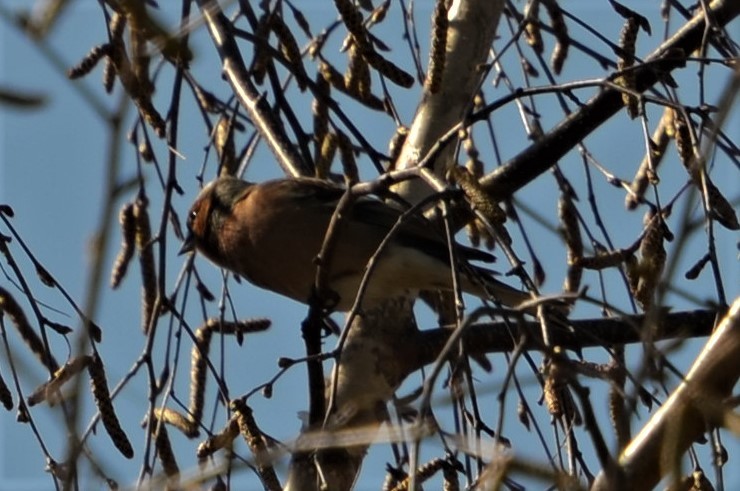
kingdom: Animalia
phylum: Chordata
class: Aves
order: Passeriformes
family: Fringillidae
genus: Fringilla
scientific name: Fringilla coelebs
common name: Common chaffinch
